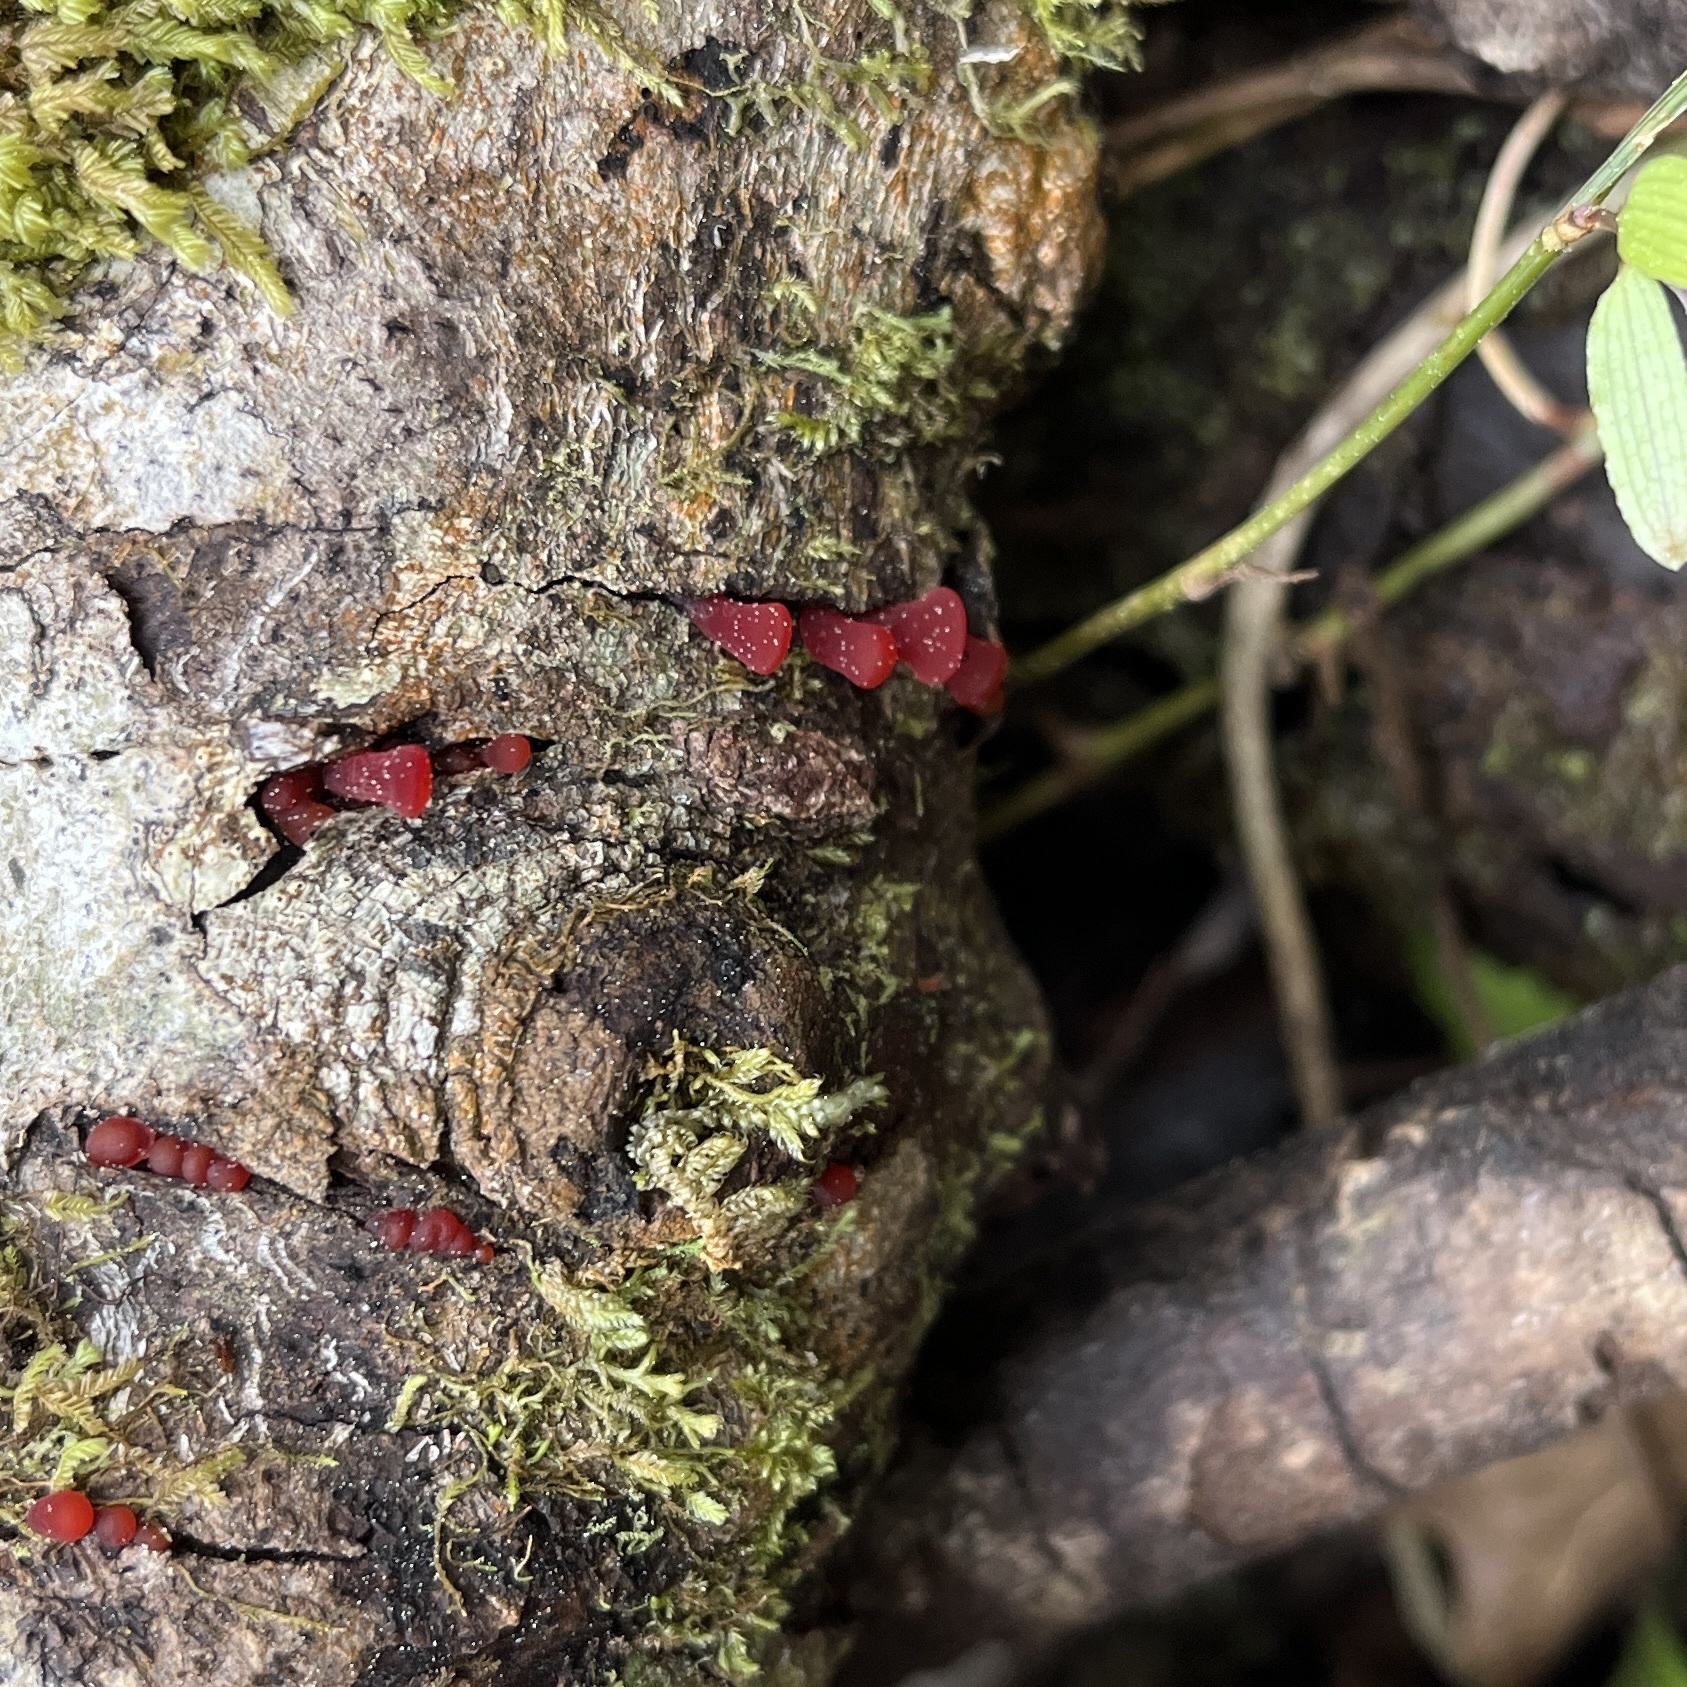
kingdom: Fungi
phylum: Basidiomycota
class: Dacrymycetes
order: Dacrymycetales
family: Dacrymycetaceae
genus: Guepiniopsis
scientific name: Guepiniopsis alpina
